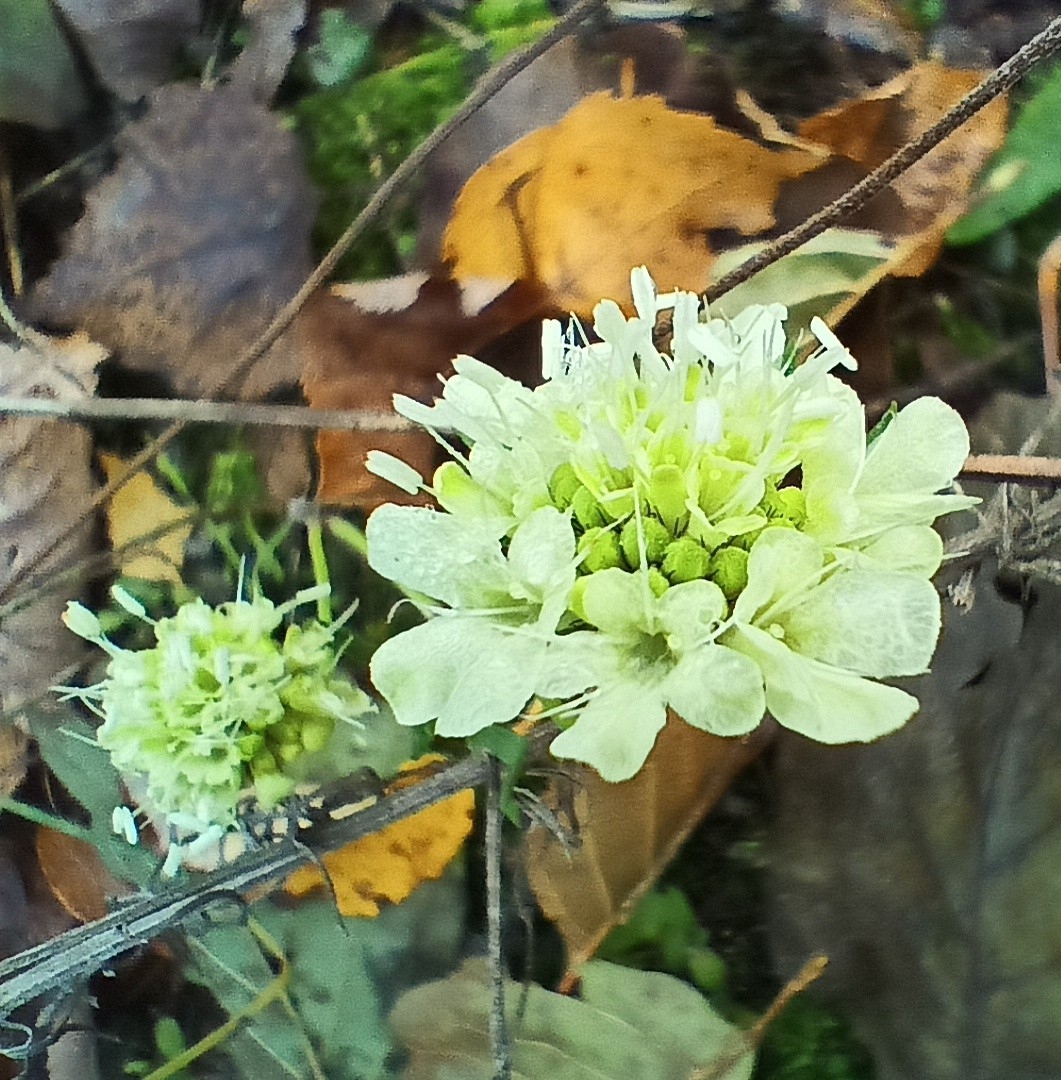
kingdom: Plantae
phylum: Tracheophyta
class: Magnoliopsida
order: Dipsacales
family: Caprifoliaceae
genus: Scabiosa
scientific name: Scabiosa ochroleuca
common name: Cream pincushions
